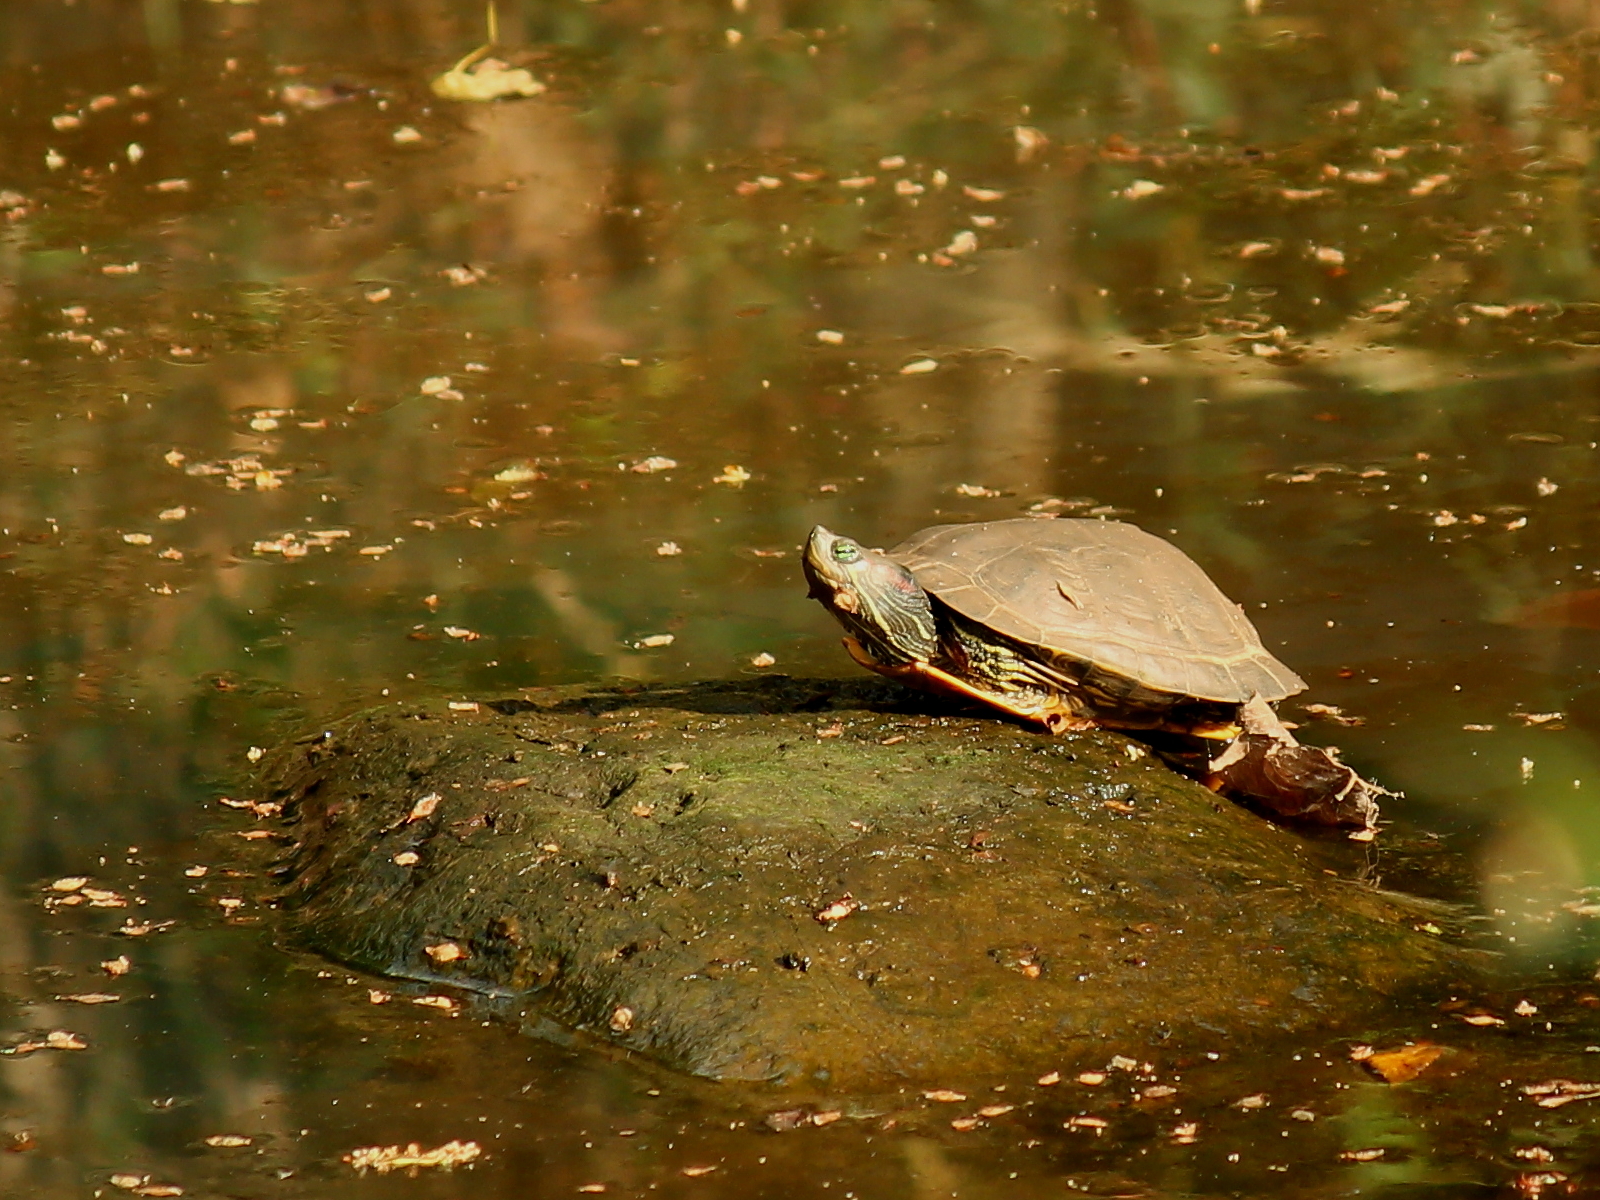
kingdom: Animalia
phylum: Chordata
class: Testudines
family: Emydidae
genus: Trachemys
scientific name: Trachemys scripta
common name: Slider
